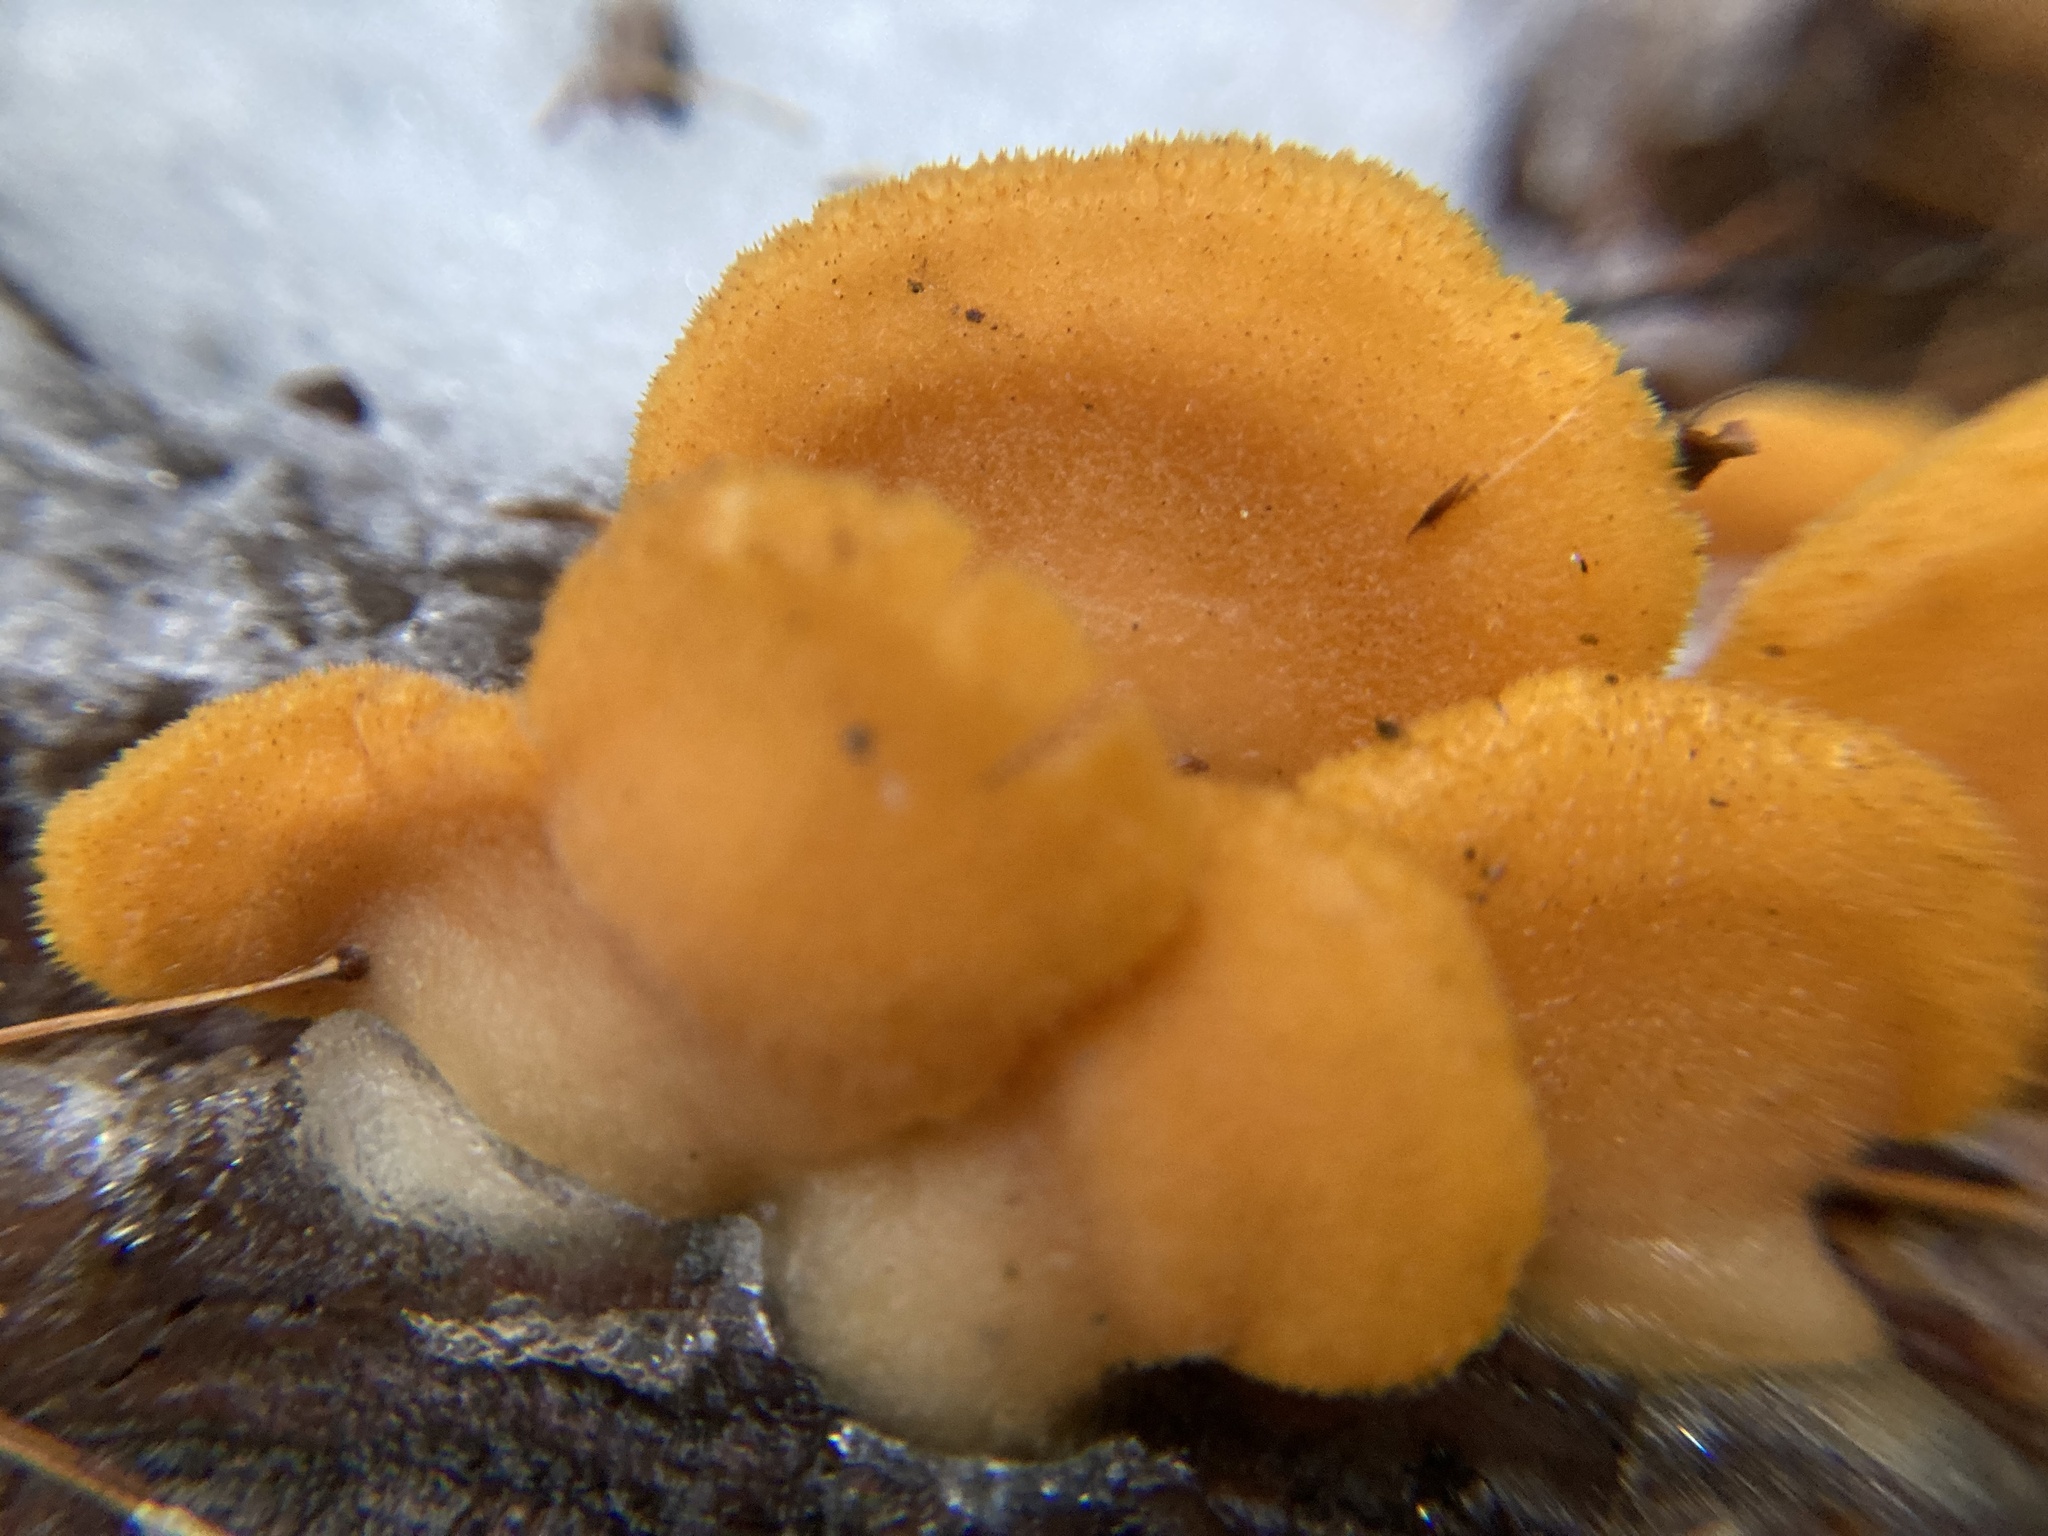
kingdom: Fungi
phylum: Basidiomycota
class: Agaricomycetes
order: Agaricales
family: Phyllotopsidaceae
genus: Phyllotopsis
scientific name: Phyllotopsis nidulans
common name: Orange mock oyster
